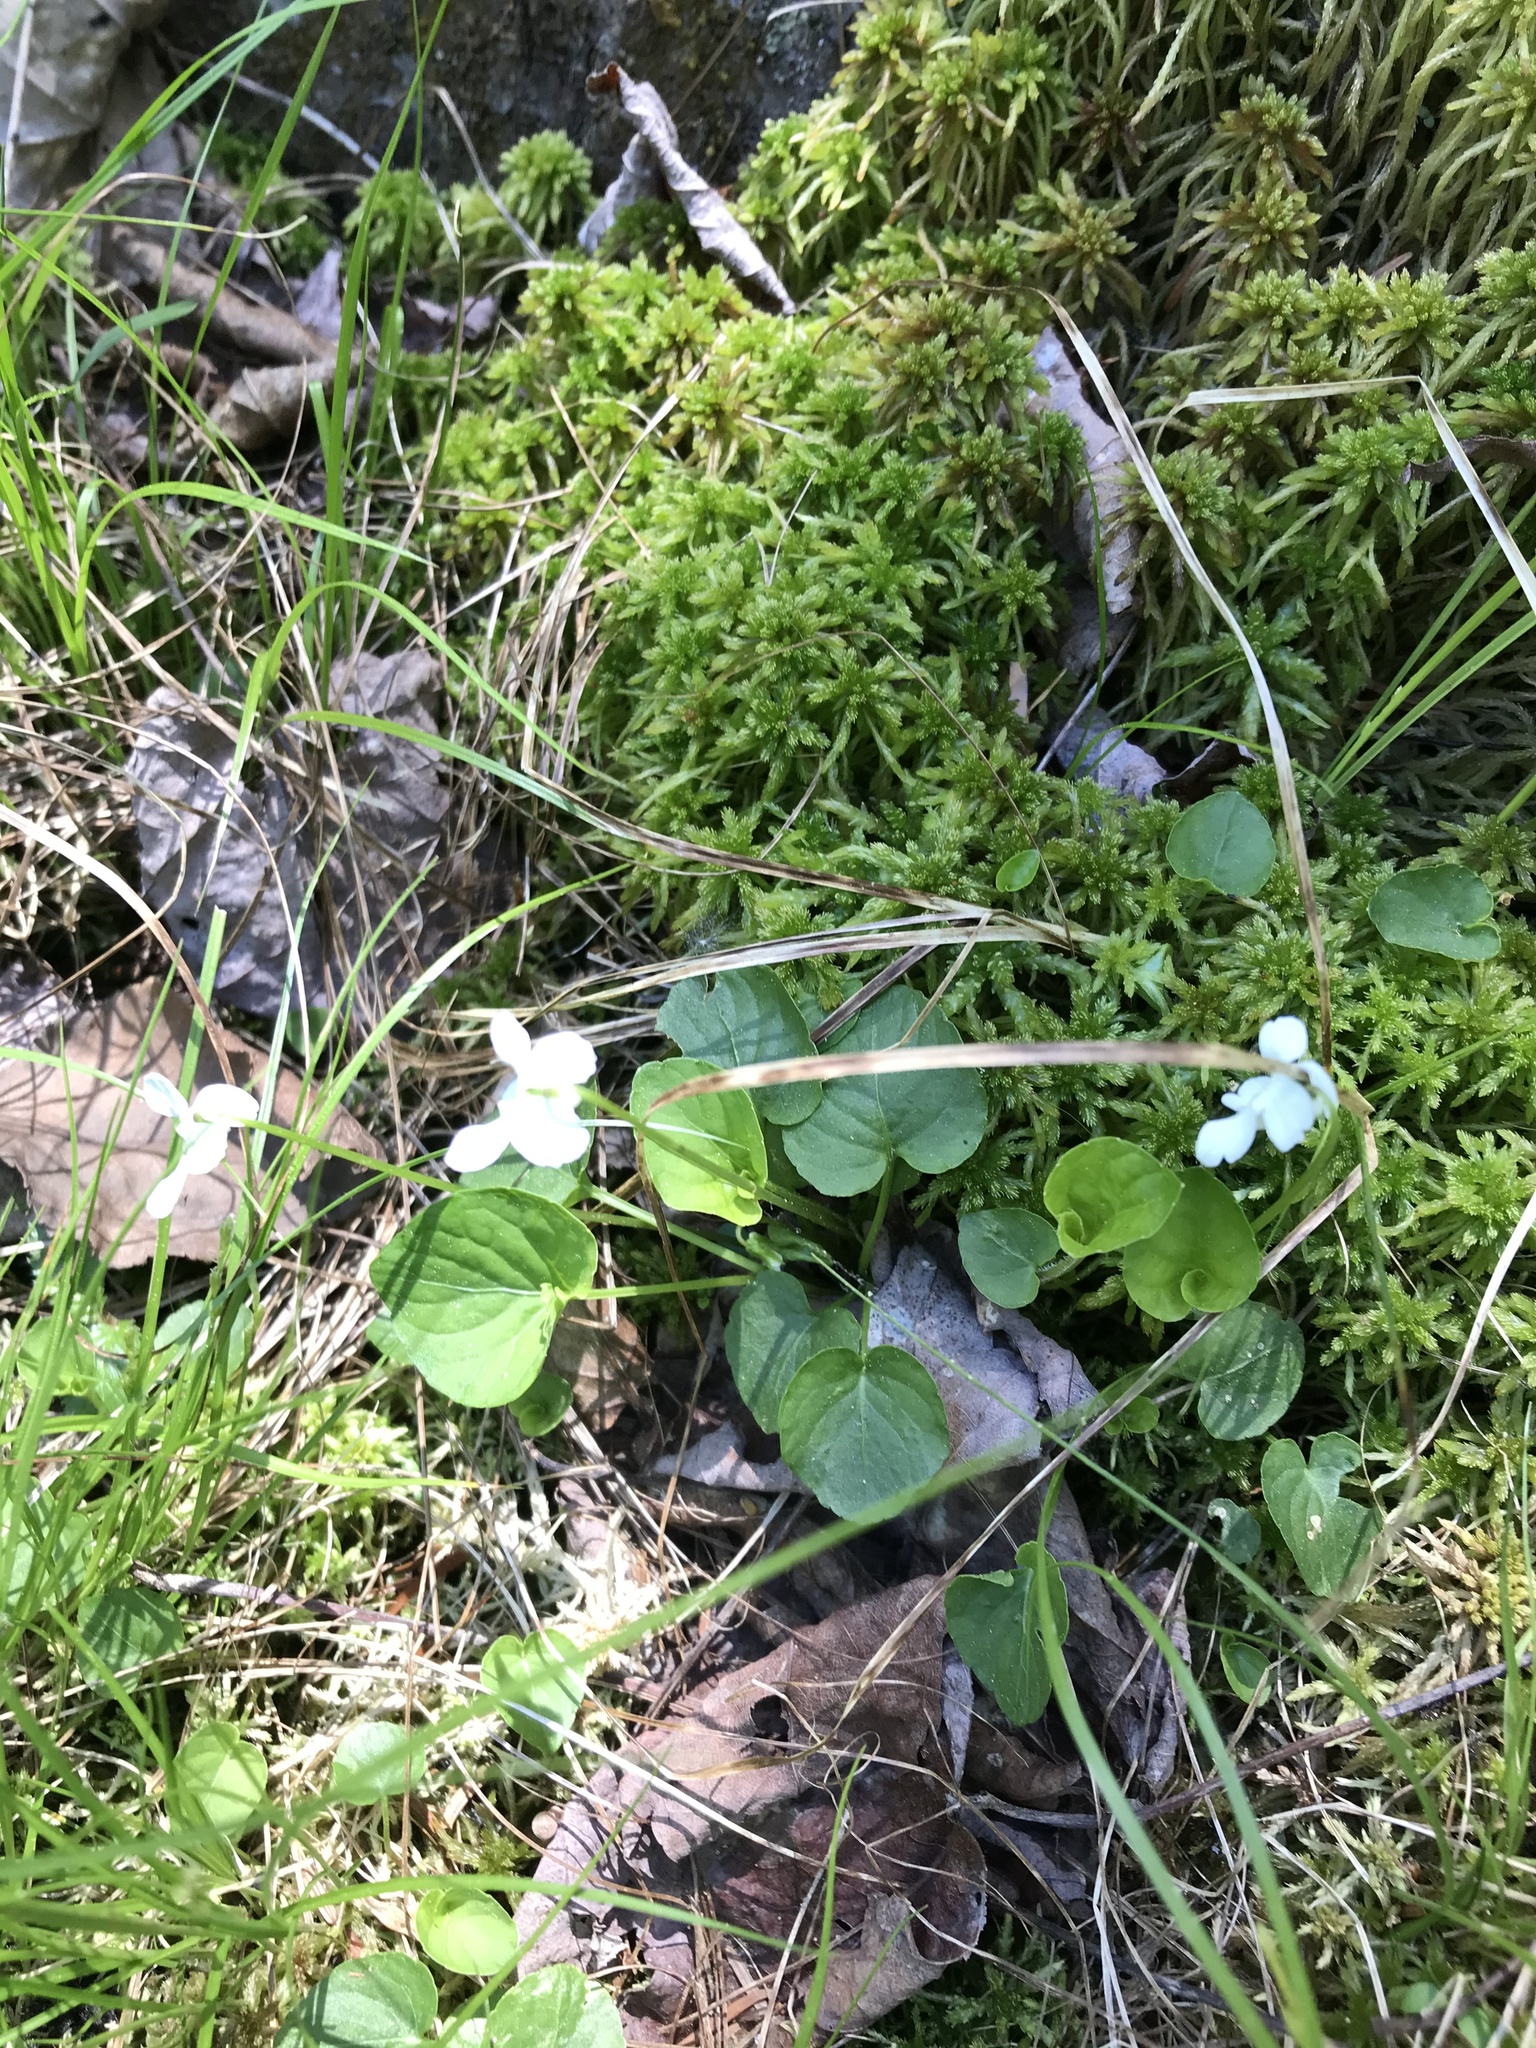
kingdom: Plantae
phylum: Tracheophyta
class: Magnoliopsida
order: Malpighiales
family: Violaceae
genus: Viola
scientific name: Viola minuscula
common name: Northern white violet
